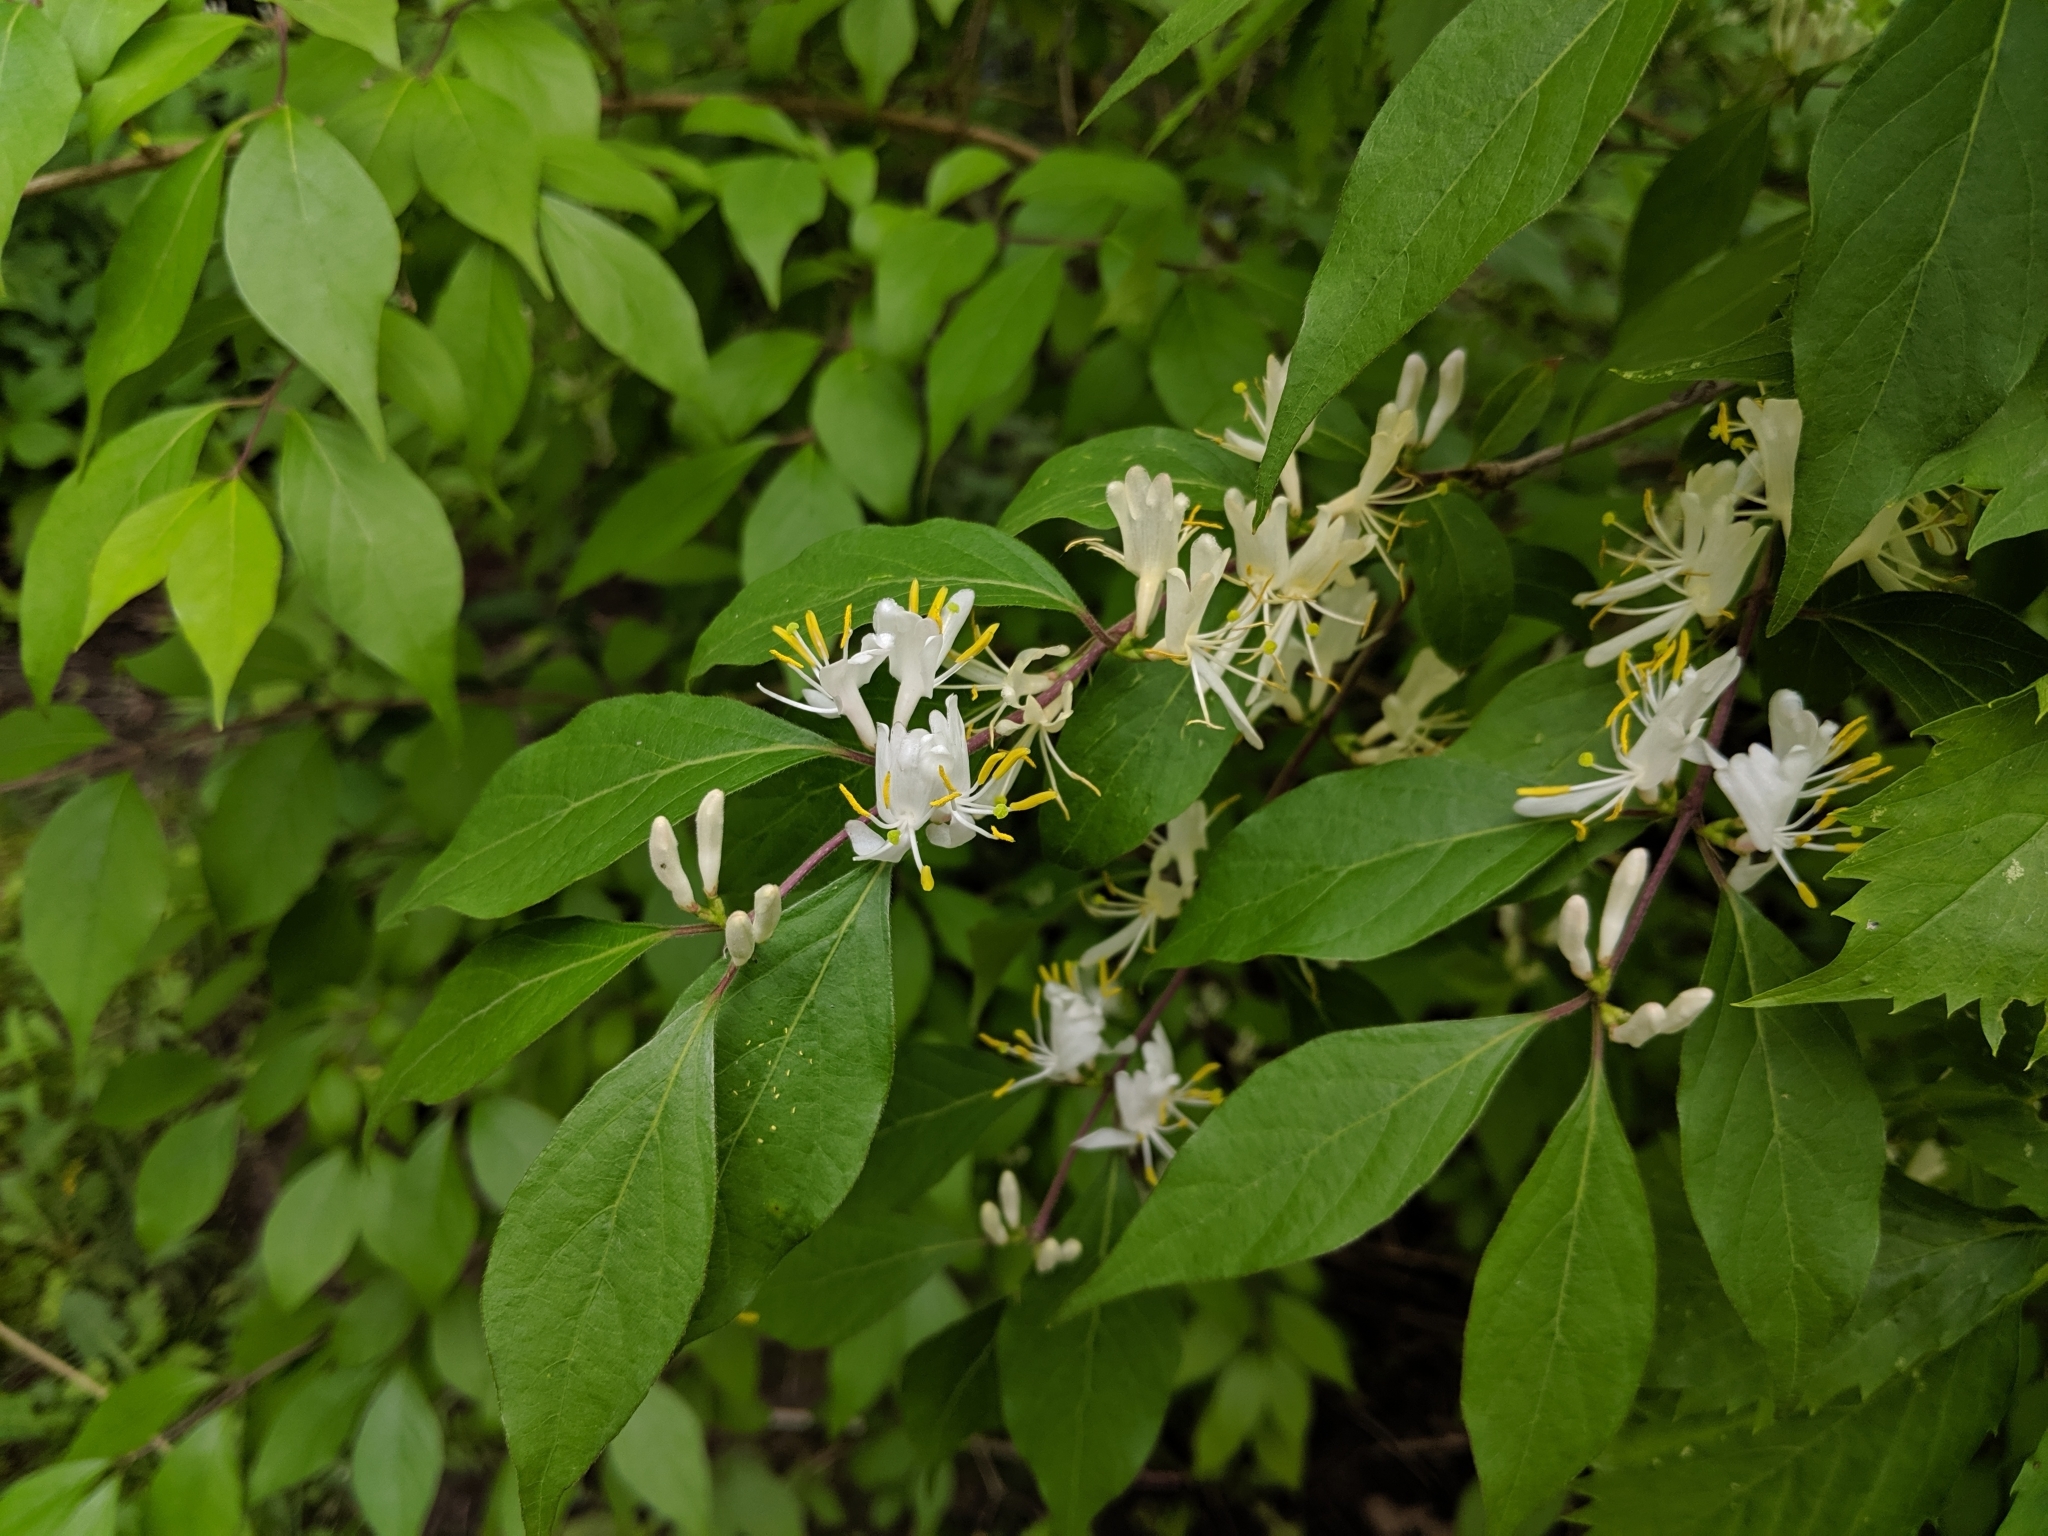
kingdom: Plantae
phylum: Tracheophyta
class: Magnoliopsida
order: Dipsacales
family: Caprifoliaceae
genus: Lonicera
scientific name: Lonicera maackii
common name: Amur honeysuckle
